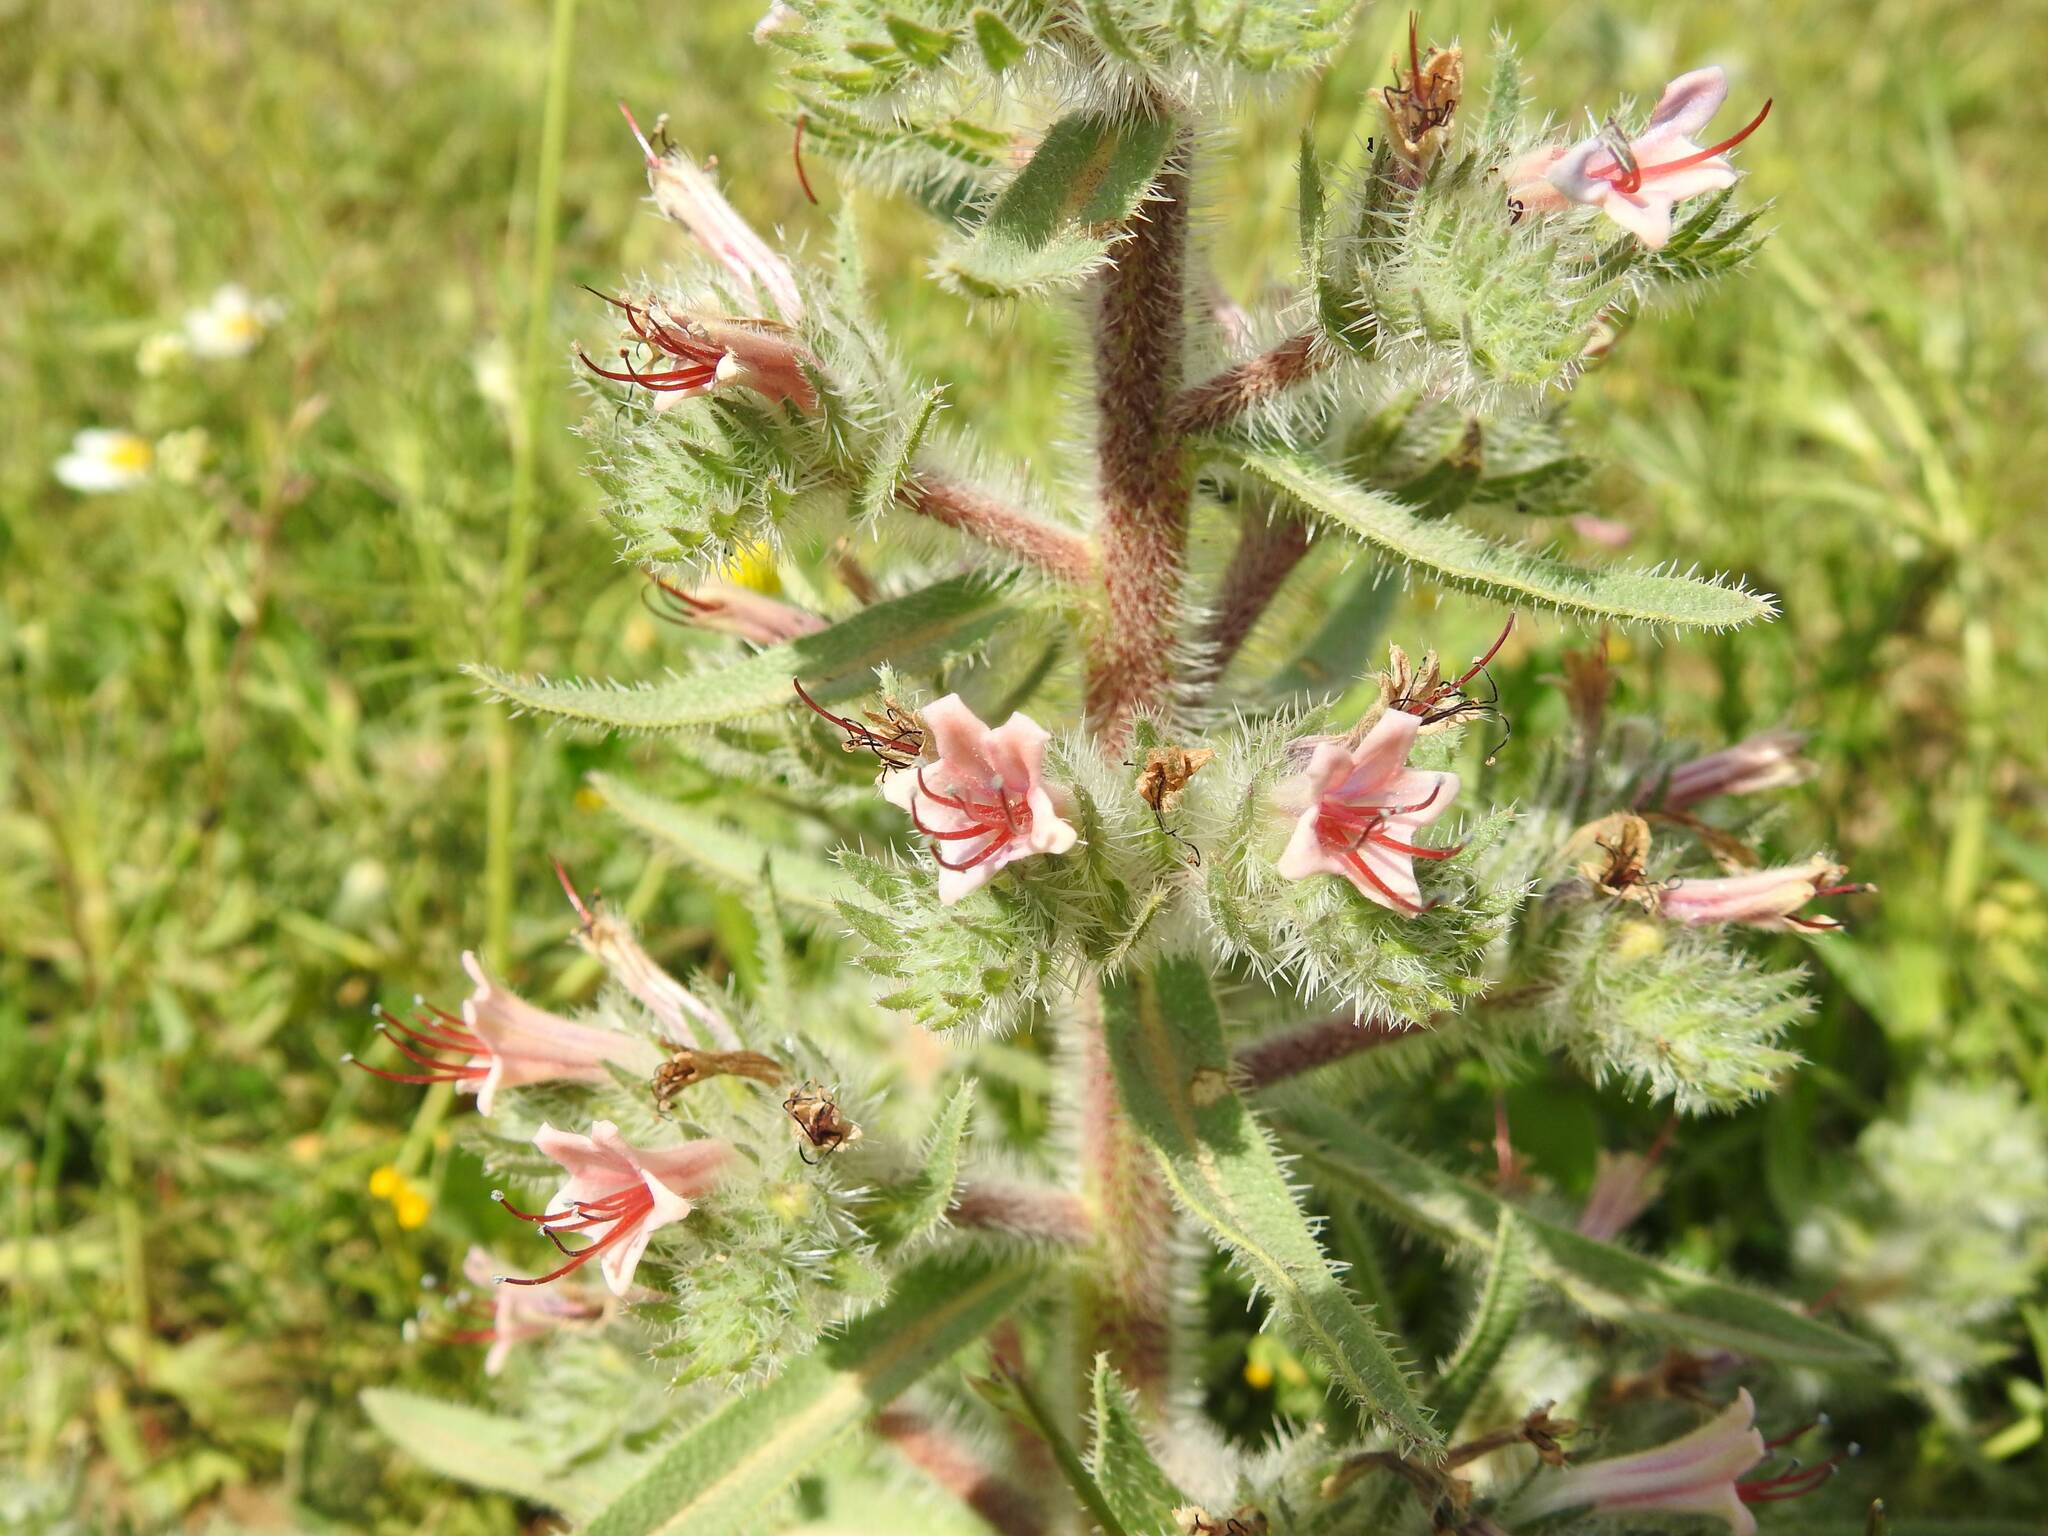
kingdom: Plantae
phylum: Tracheophyta
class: Magnoliopsida
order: Boraginales
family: Boraginaceae
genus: Echium
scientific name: Echium asperrimum
